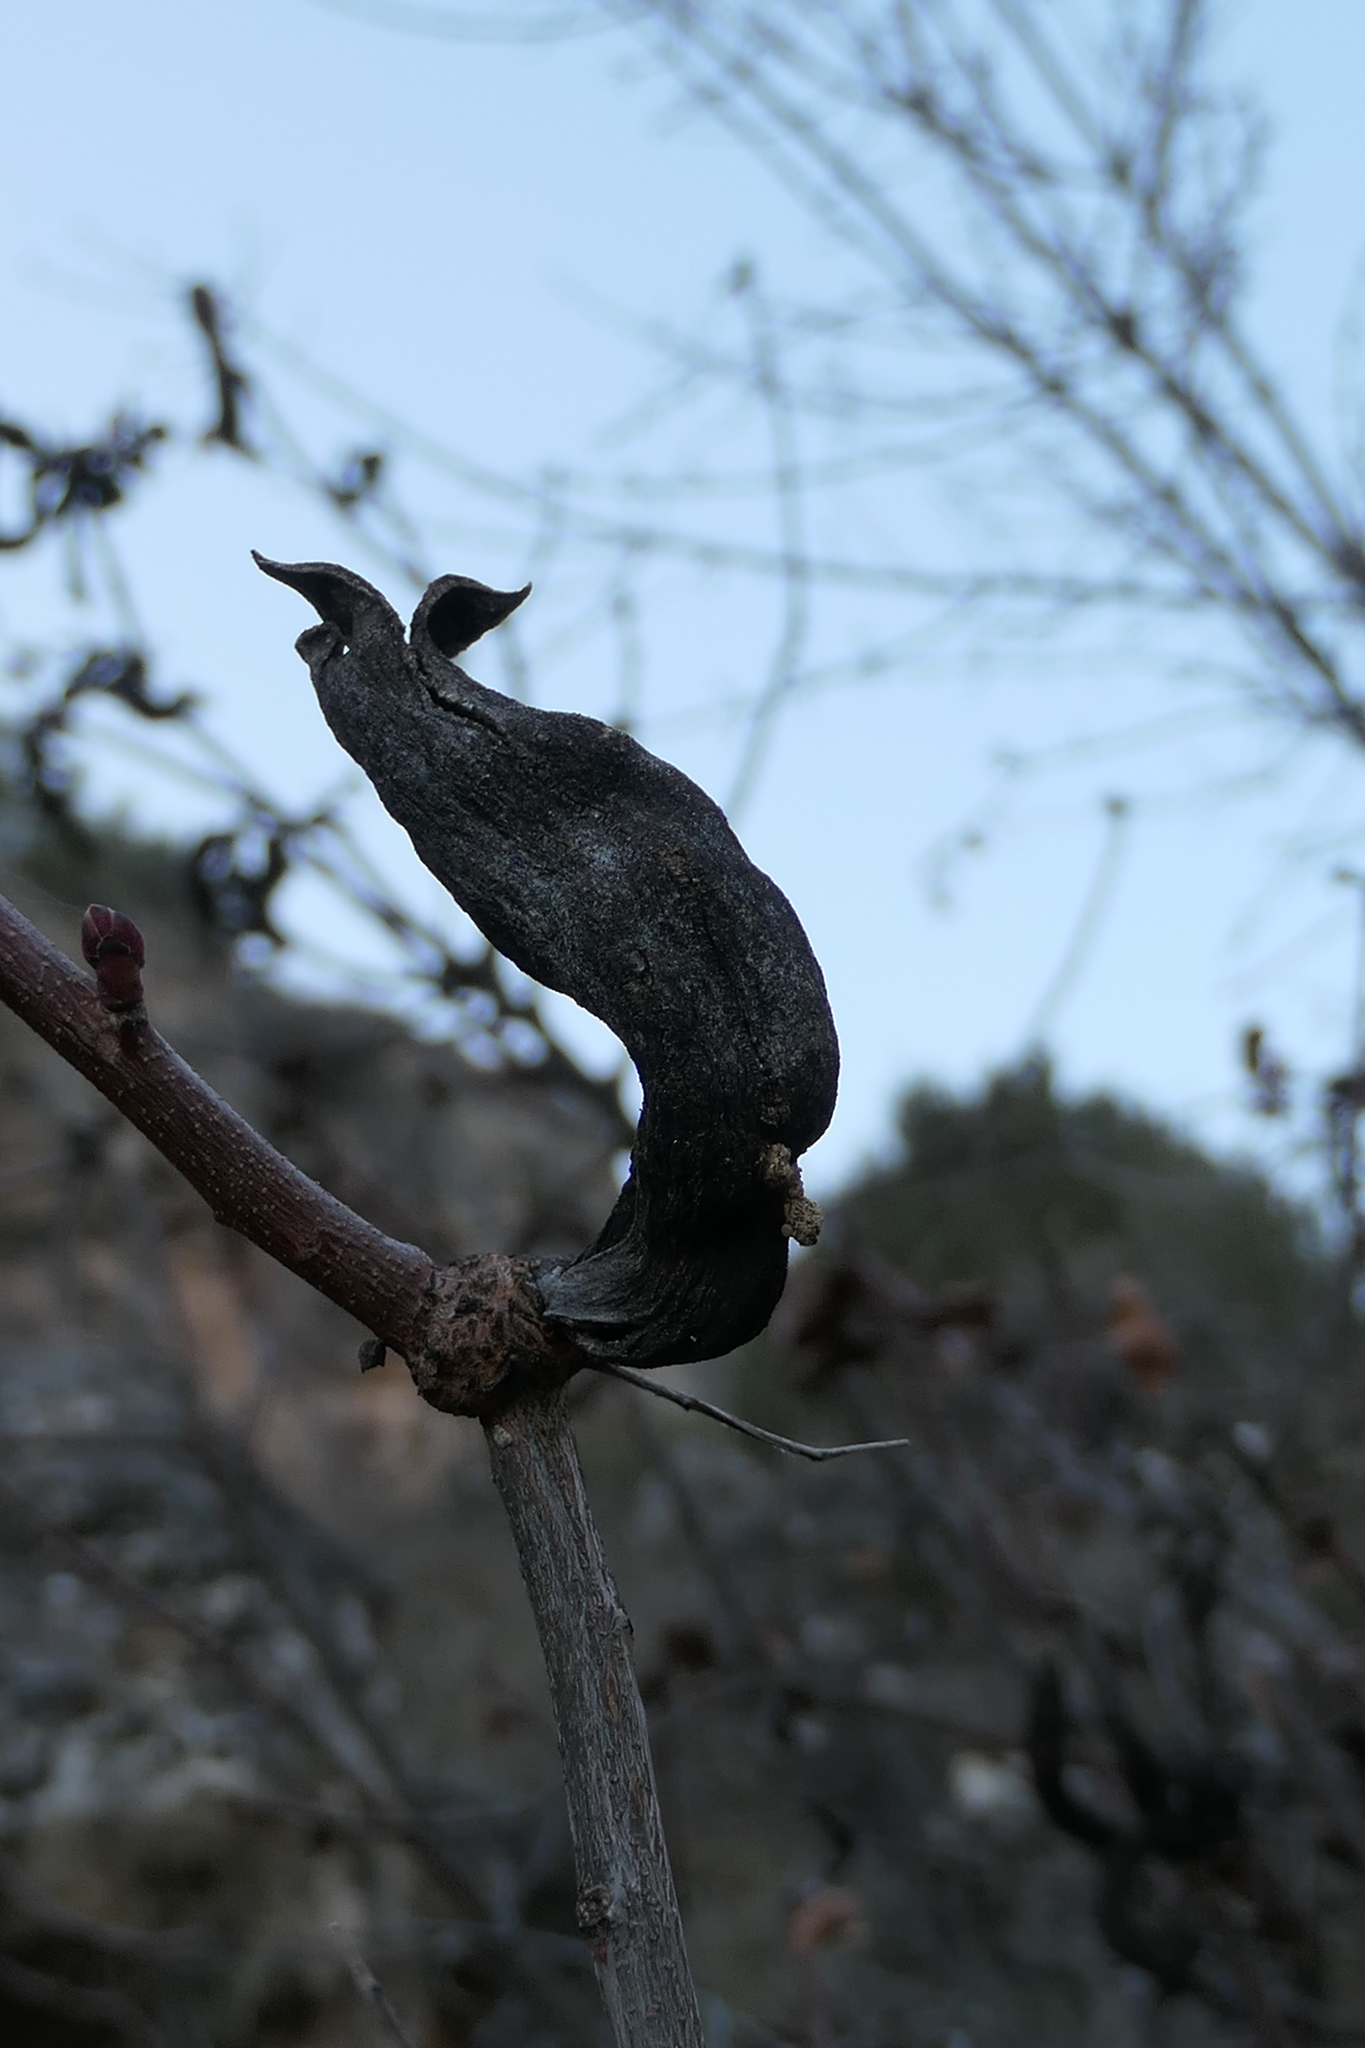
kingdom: Plantae
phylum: Tracheophyta
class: Magnoliopsida
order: Sapindales
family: Anacardiaceae
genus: Pistacia
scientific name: Pistacia terebinthus
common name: Terebinth
